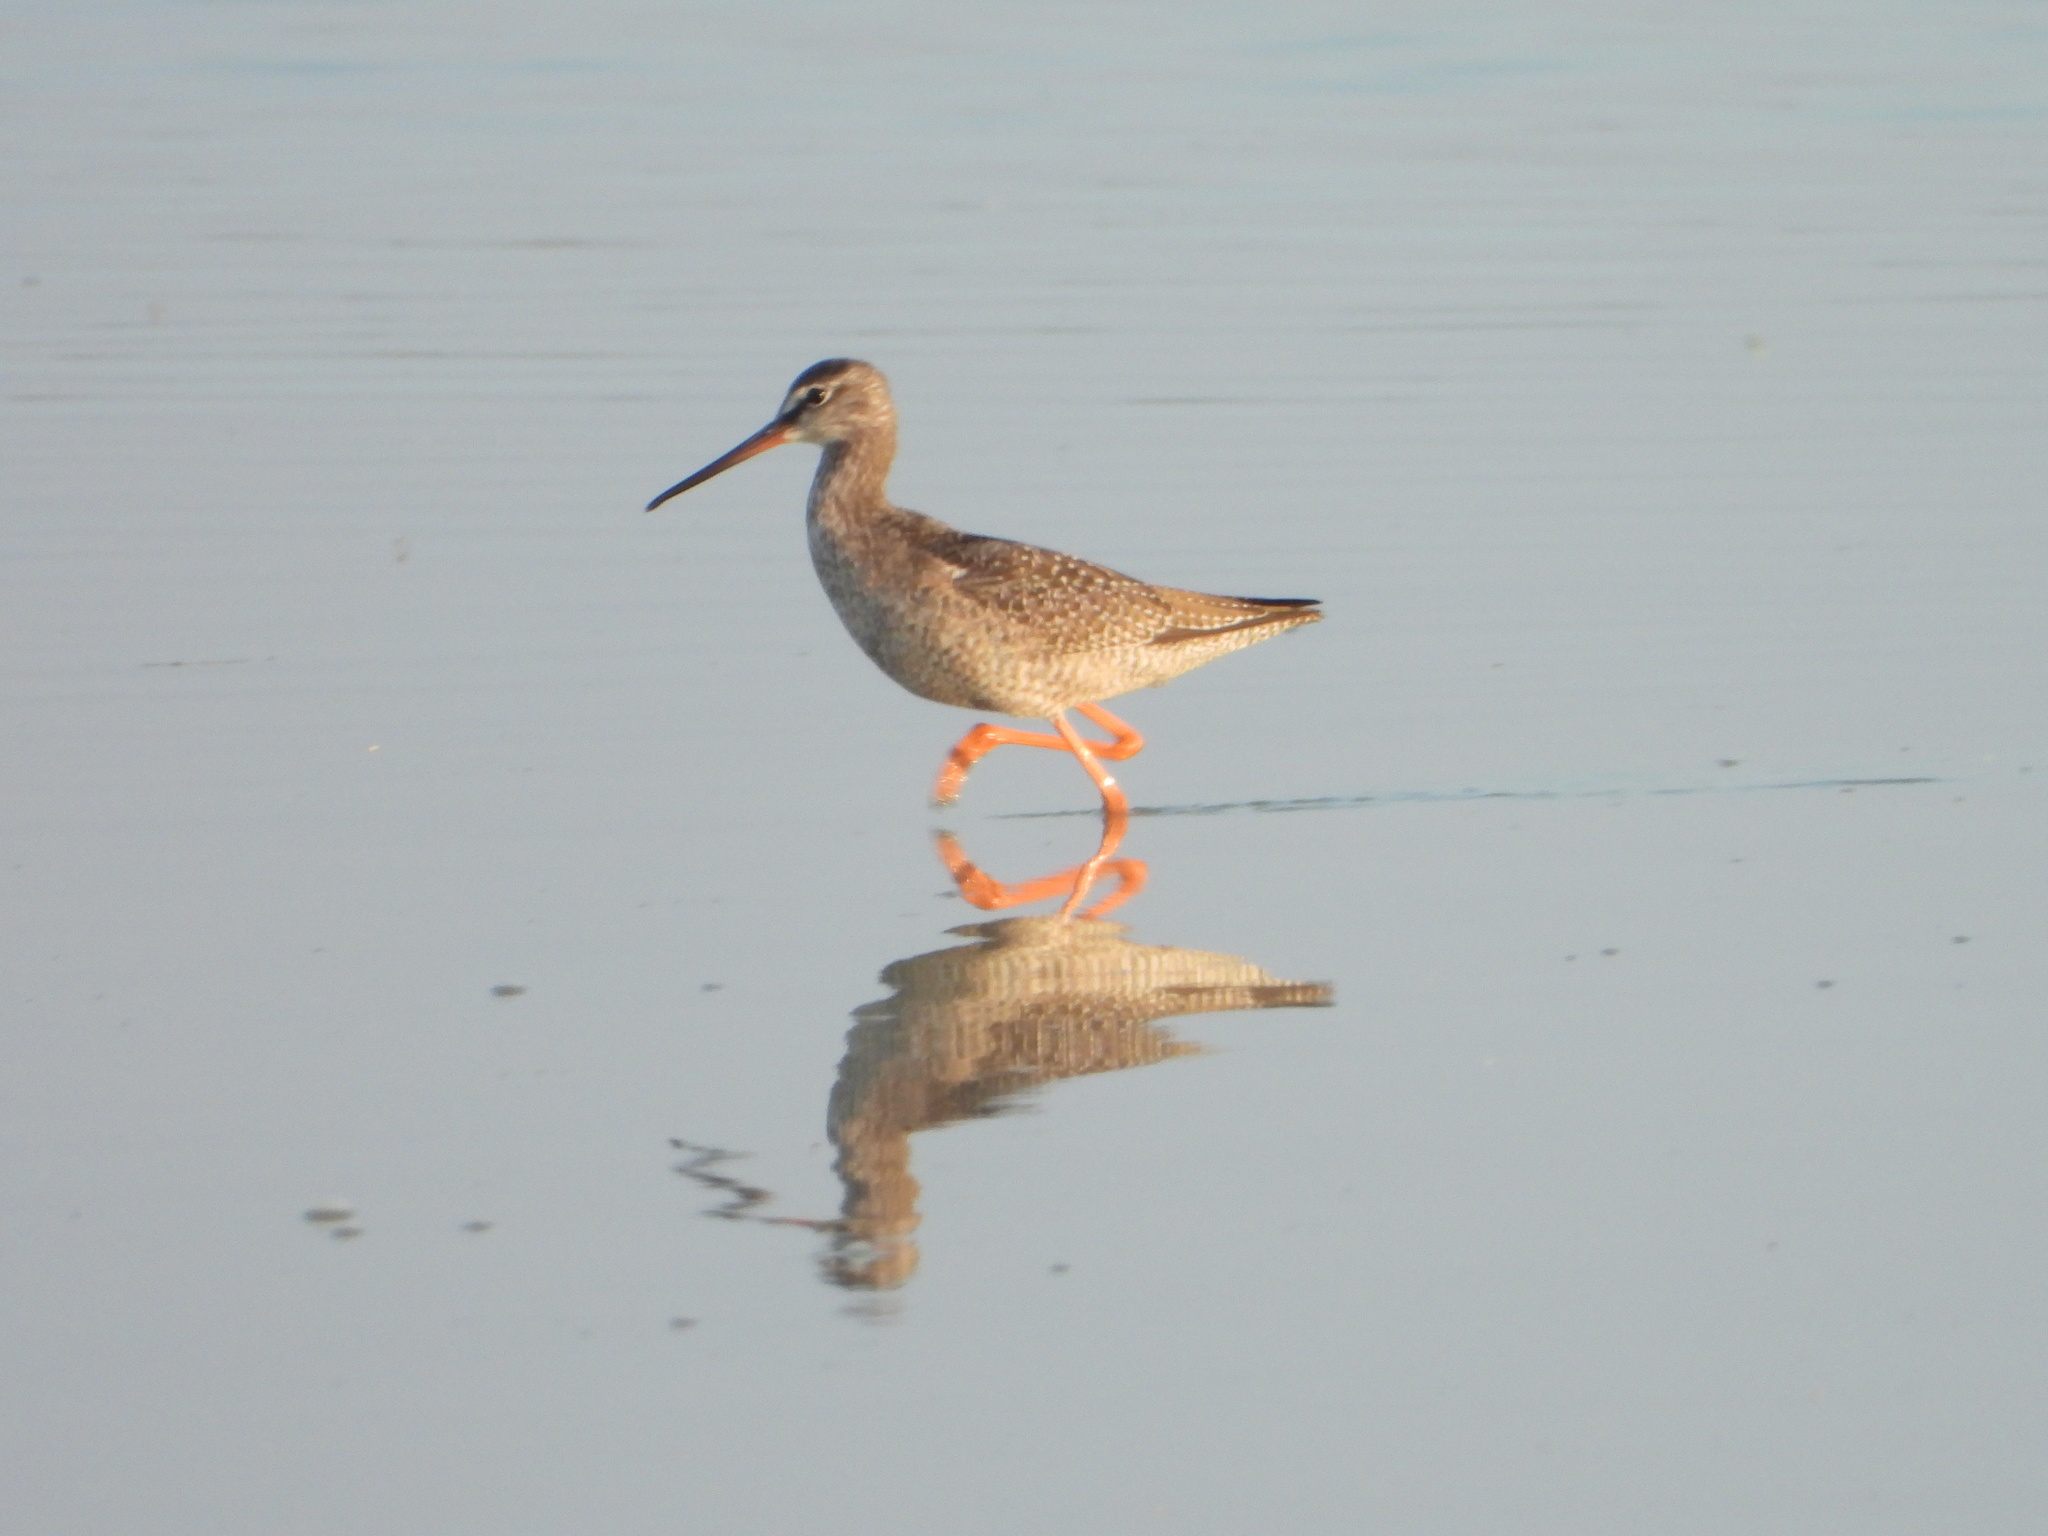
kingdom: Animalia
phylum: Chordata
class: Aves
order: Charadriiformes
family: Scolopacidae
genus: Tringa
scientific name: Tringa erythropus
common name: Spotted redshank
